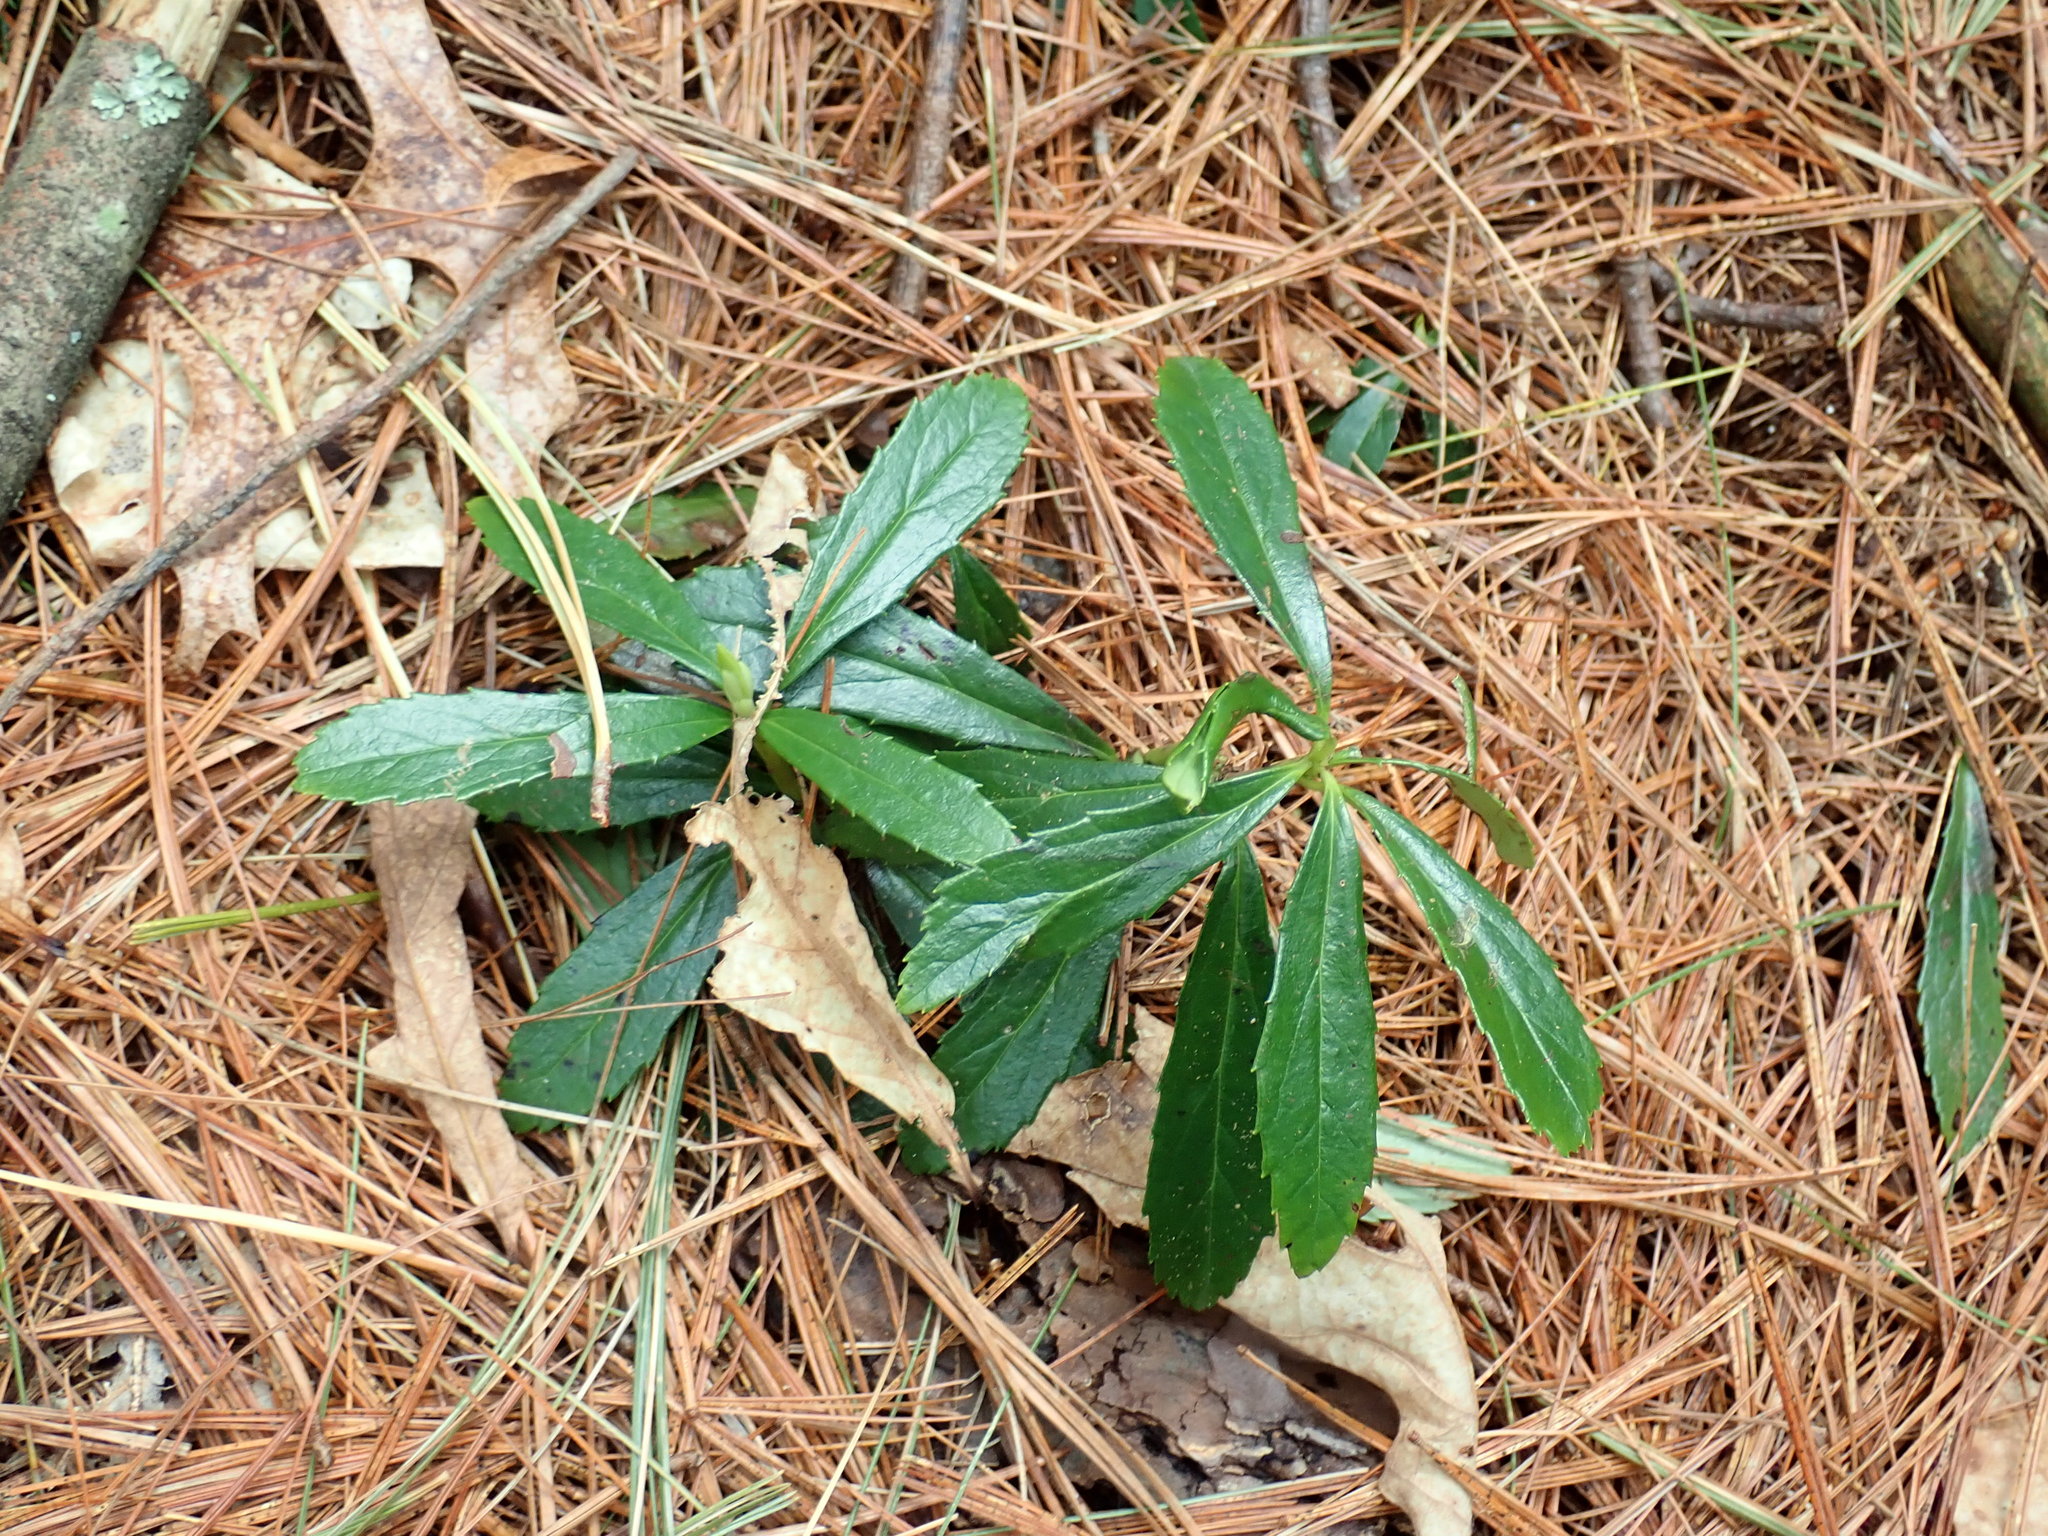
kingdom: Plantae
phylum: Tracheophyta
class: Magnoliopsida
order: Ericales
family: Ericaceae
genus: Chimaphila
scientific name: Chimaphila umbellata
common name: Pipsissewa
